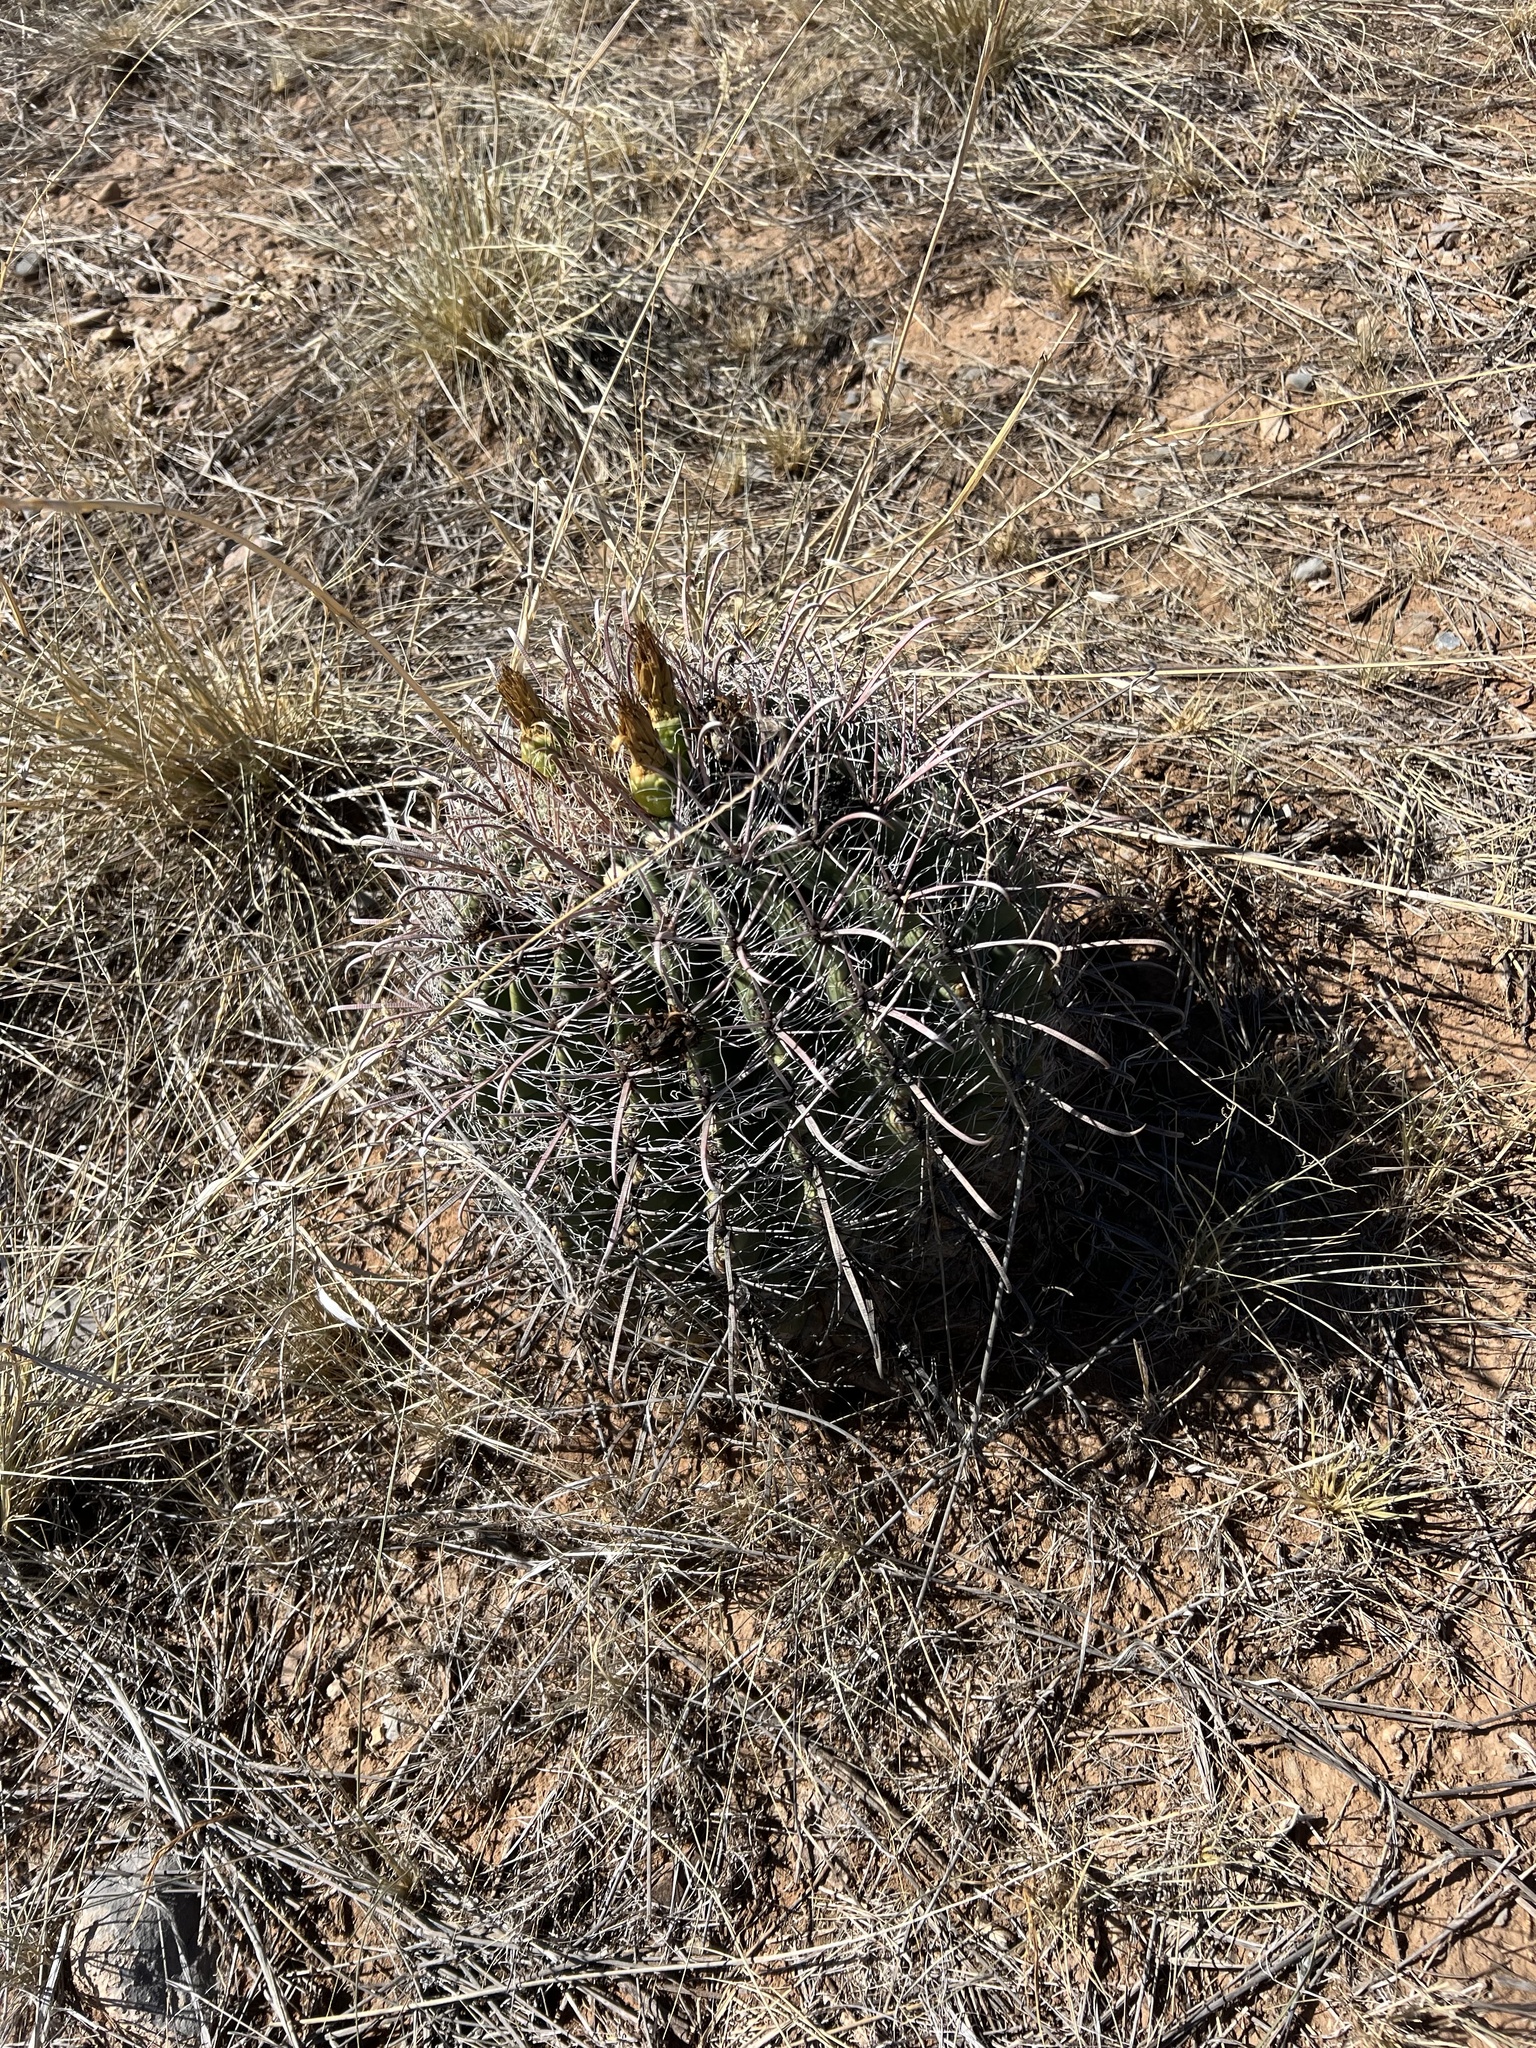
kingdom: Plantae
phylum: Tracheophyta
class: Magnoliopsida
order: Caryophyllales
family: Cactaceae
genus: Ferocactus
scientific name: Ferocactus wislizeni
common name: Candy barrel cactus
